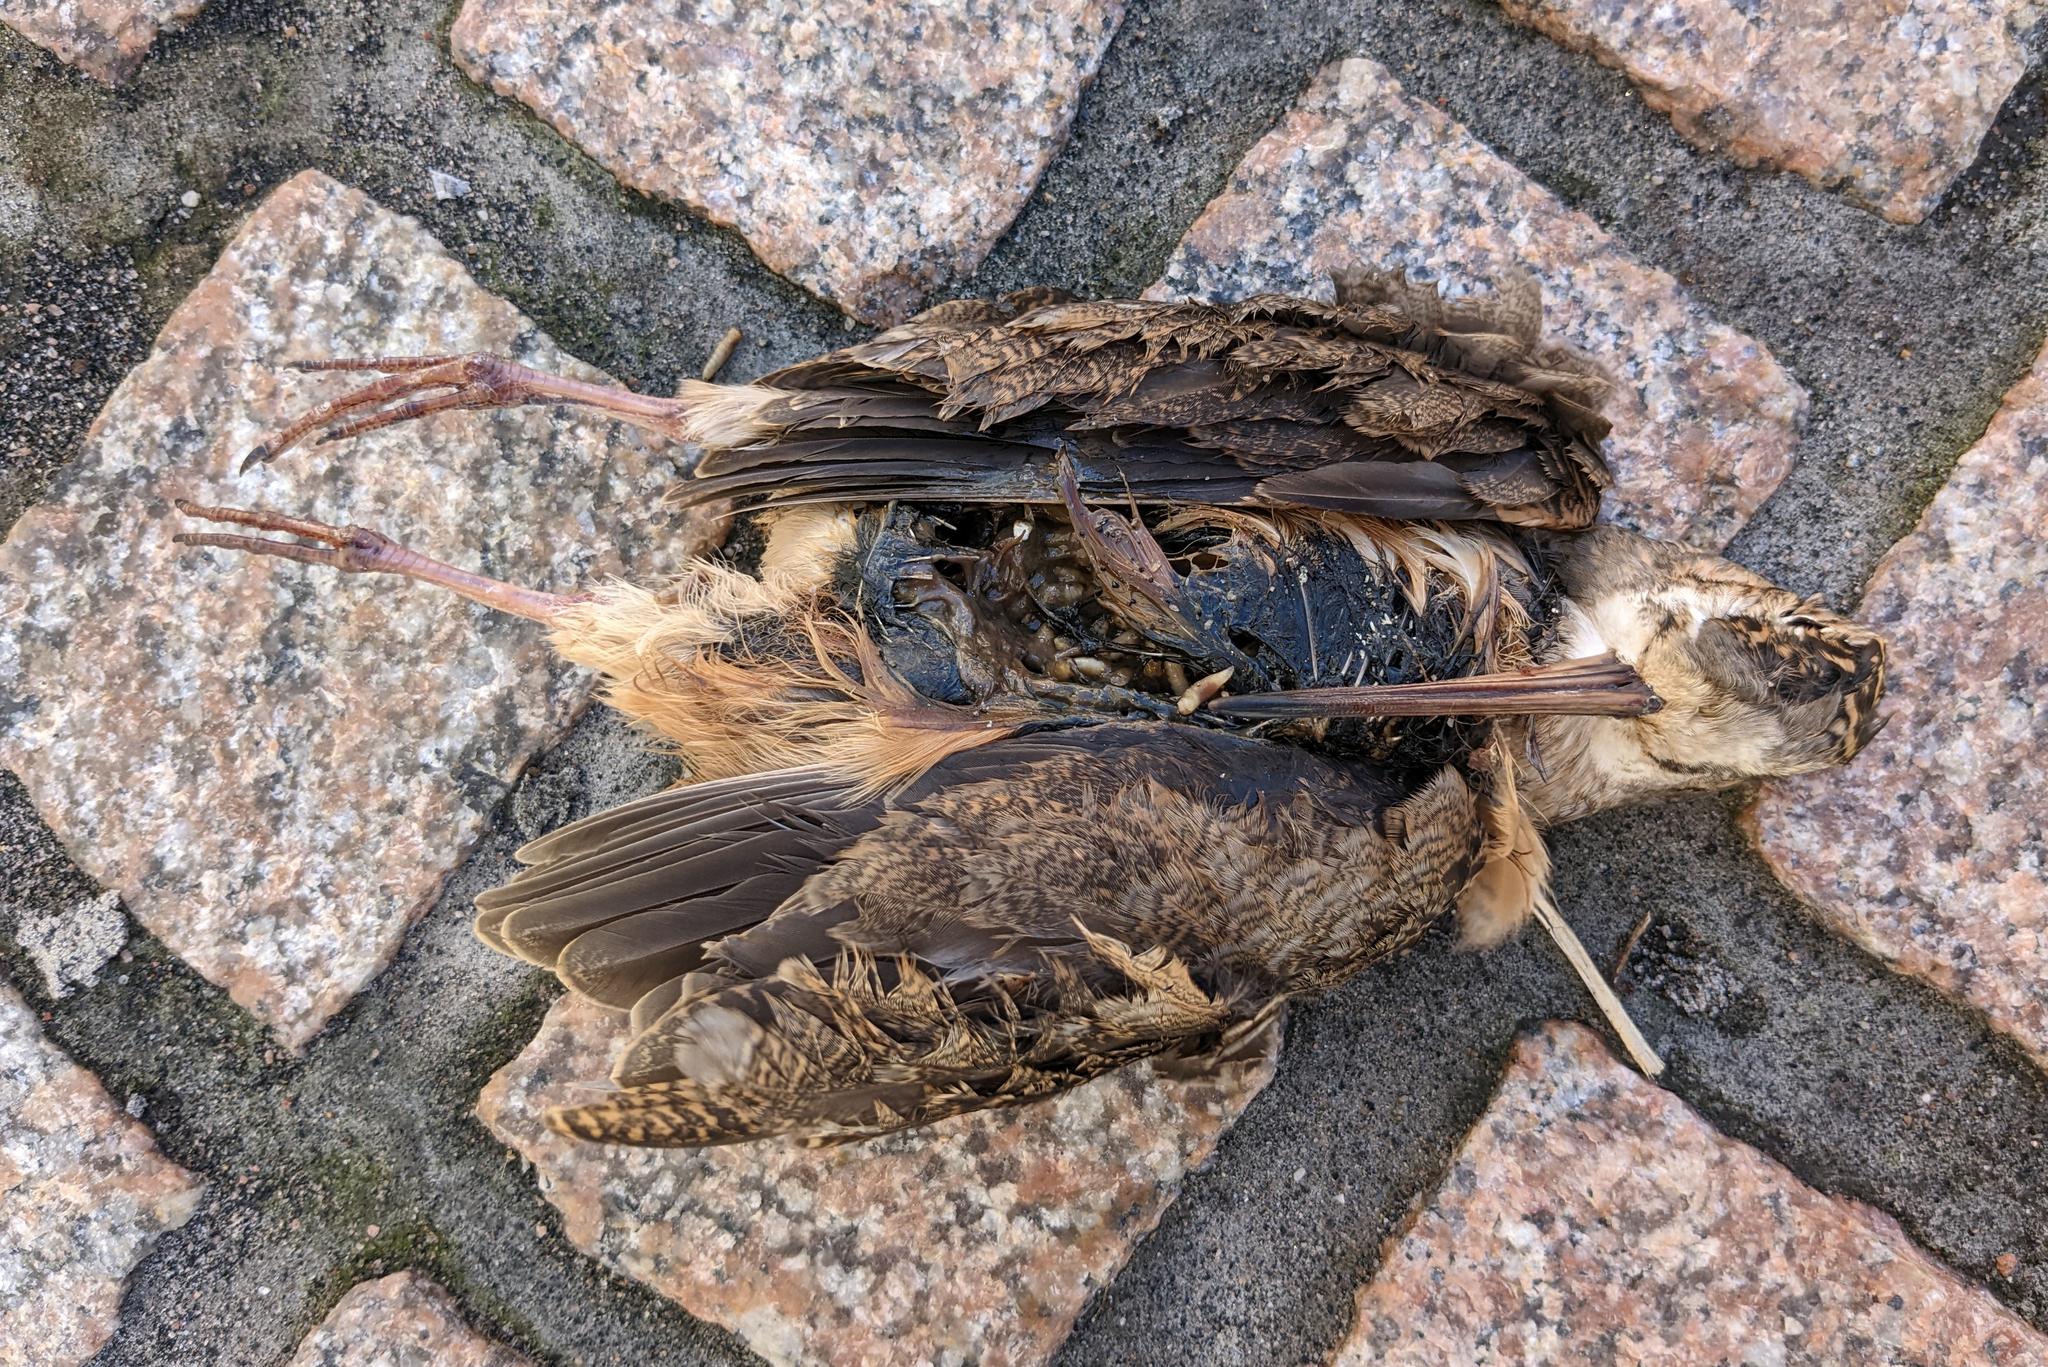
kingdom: Animalia
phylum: Chordata
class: Aves
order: Charadriiformes
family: Scolopacidae
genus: Scolopax
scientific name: Scolopax minor
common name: American woodcock
